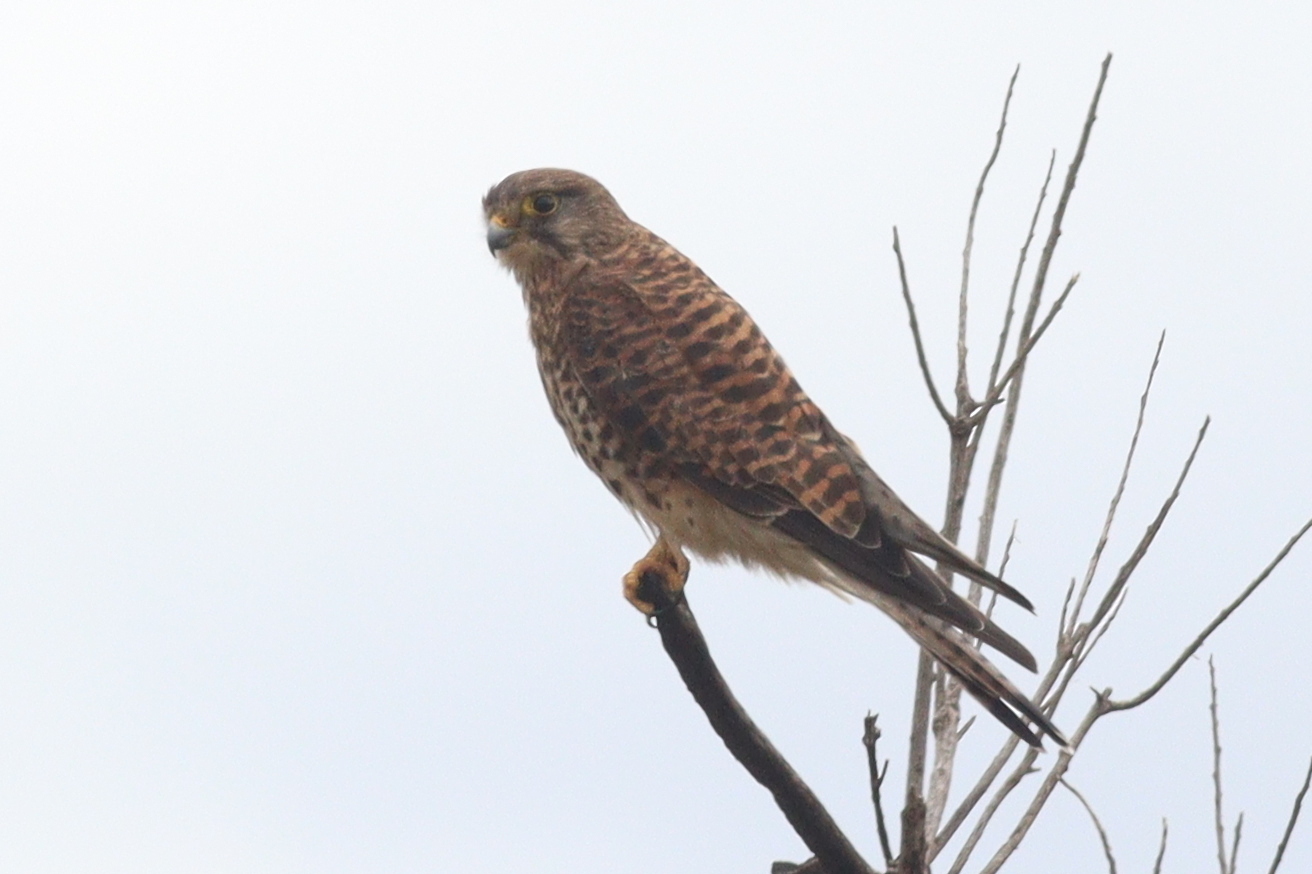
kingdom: Animalia
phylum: Chordata
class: Aves
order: Falconiformes
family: Falconidae
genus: Falco
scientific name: Falco tinnunculus
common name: Common kestrel
